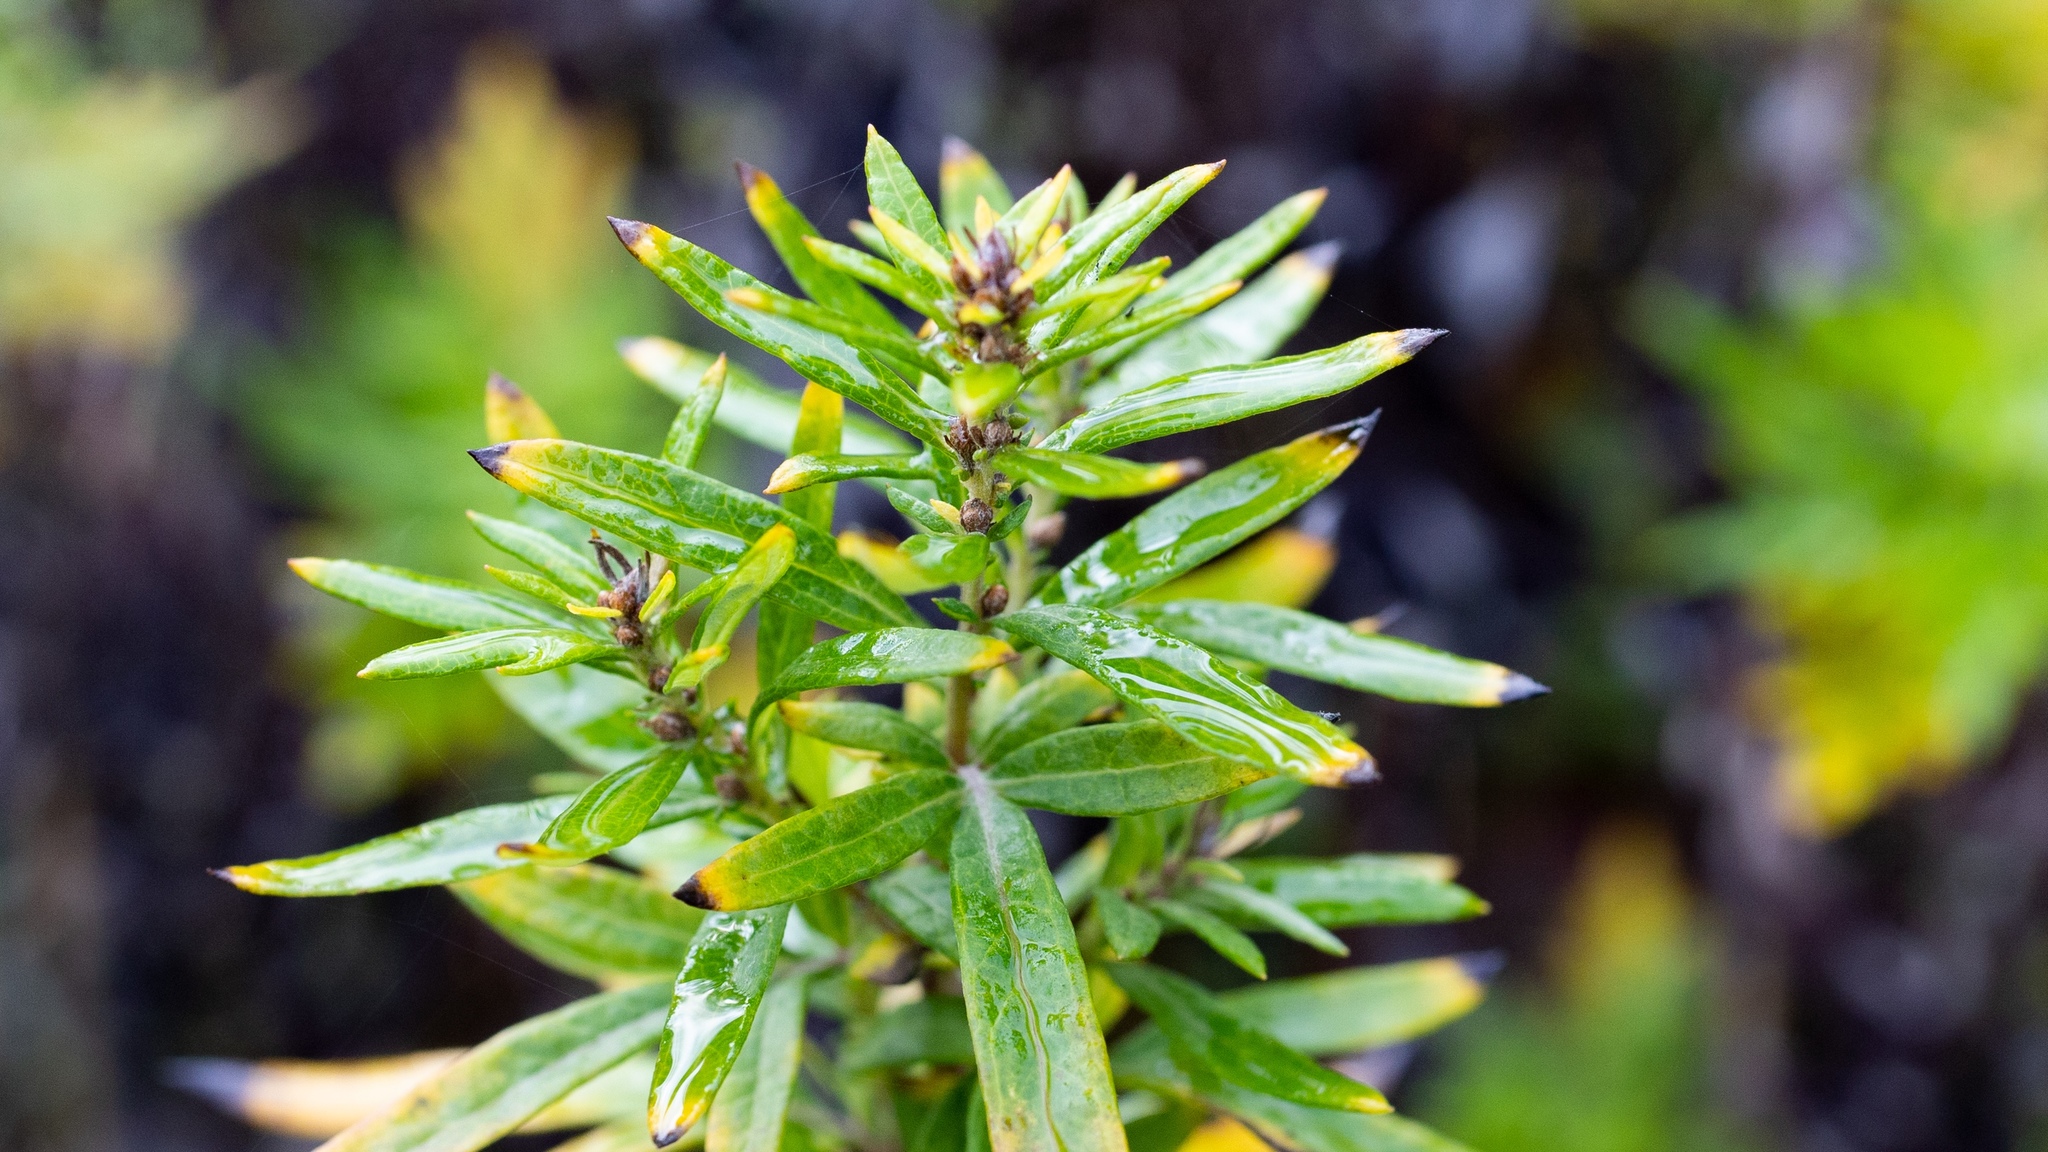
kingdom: Plantae
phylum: Tracheophyta
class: Magnoliopsida
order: Asterales
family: Asteraceae
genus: Artemisia
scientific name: Artemisia vulgaris
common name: Mugwort
